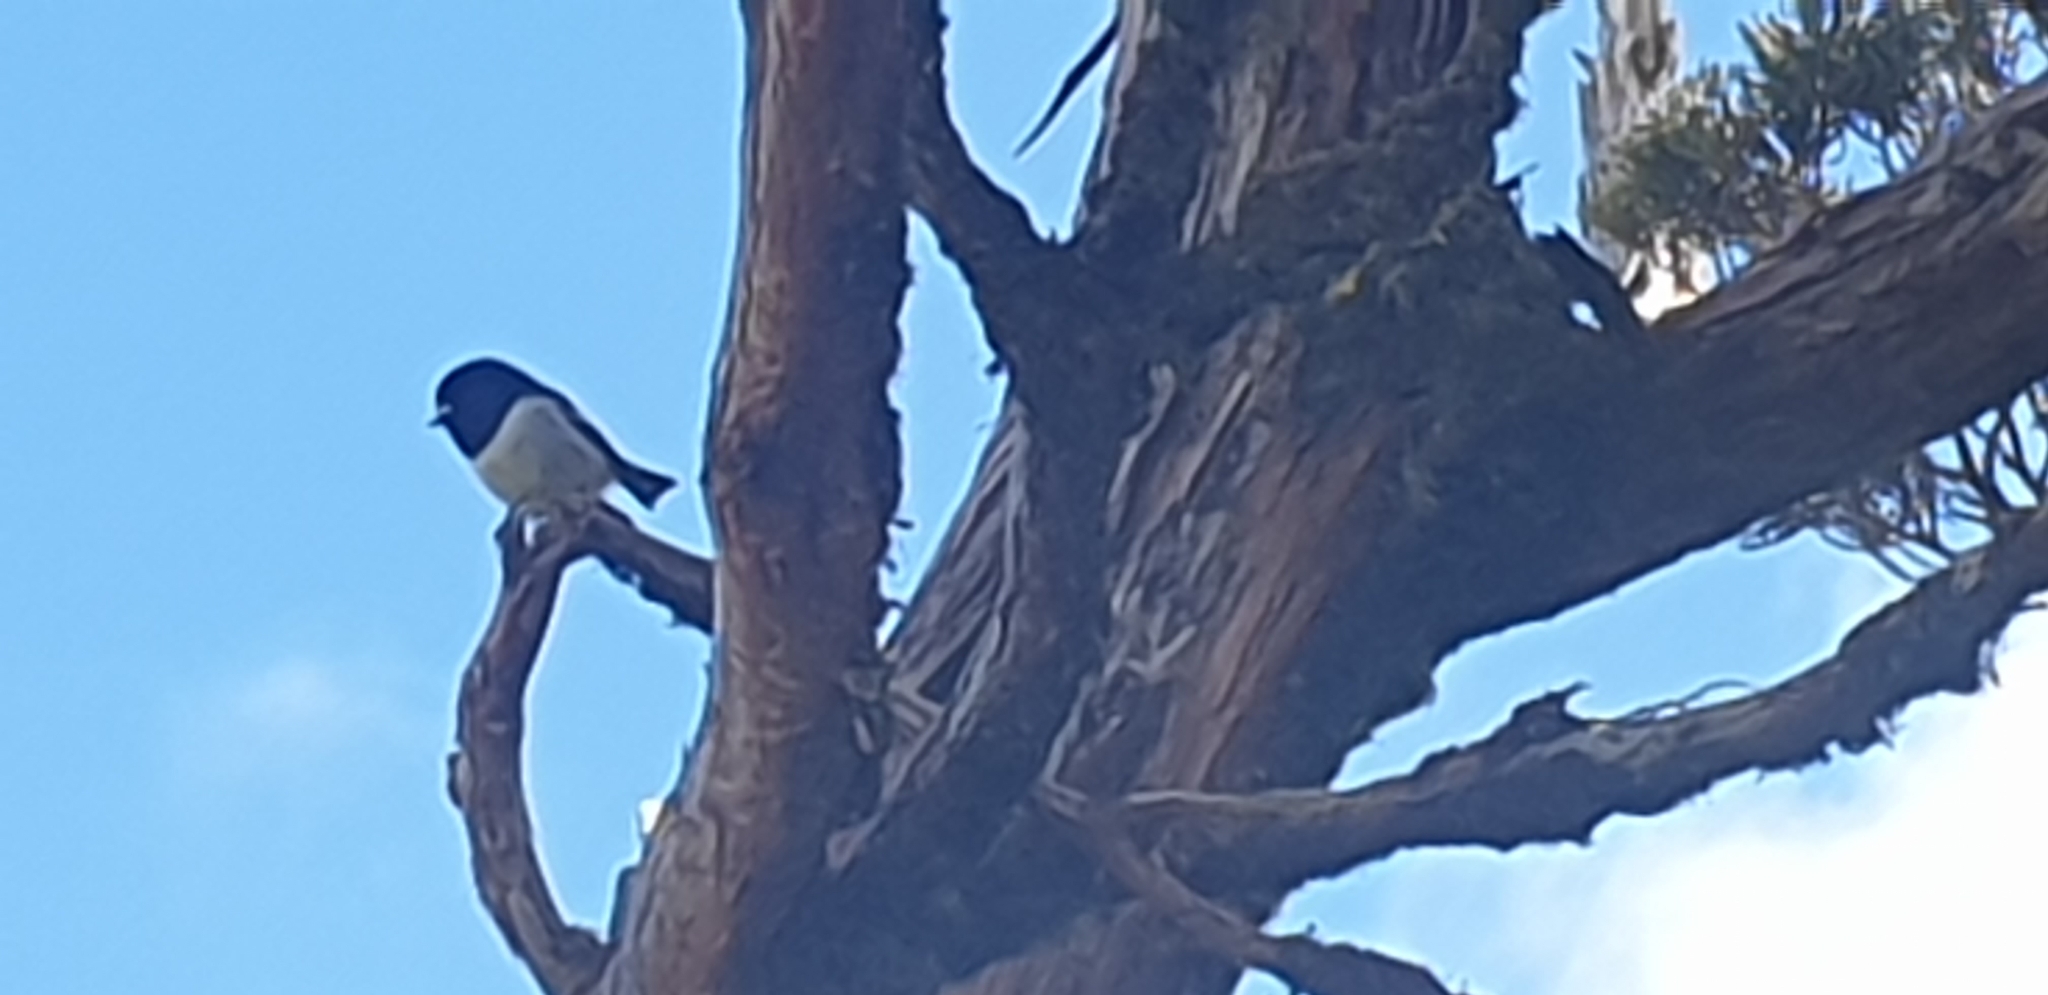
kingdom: Animalia
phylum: Chordata
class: Aves
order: Passeriformes
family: Petroicidae
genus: Petroica
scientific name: Petroica macrocephala
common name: Tomtit
